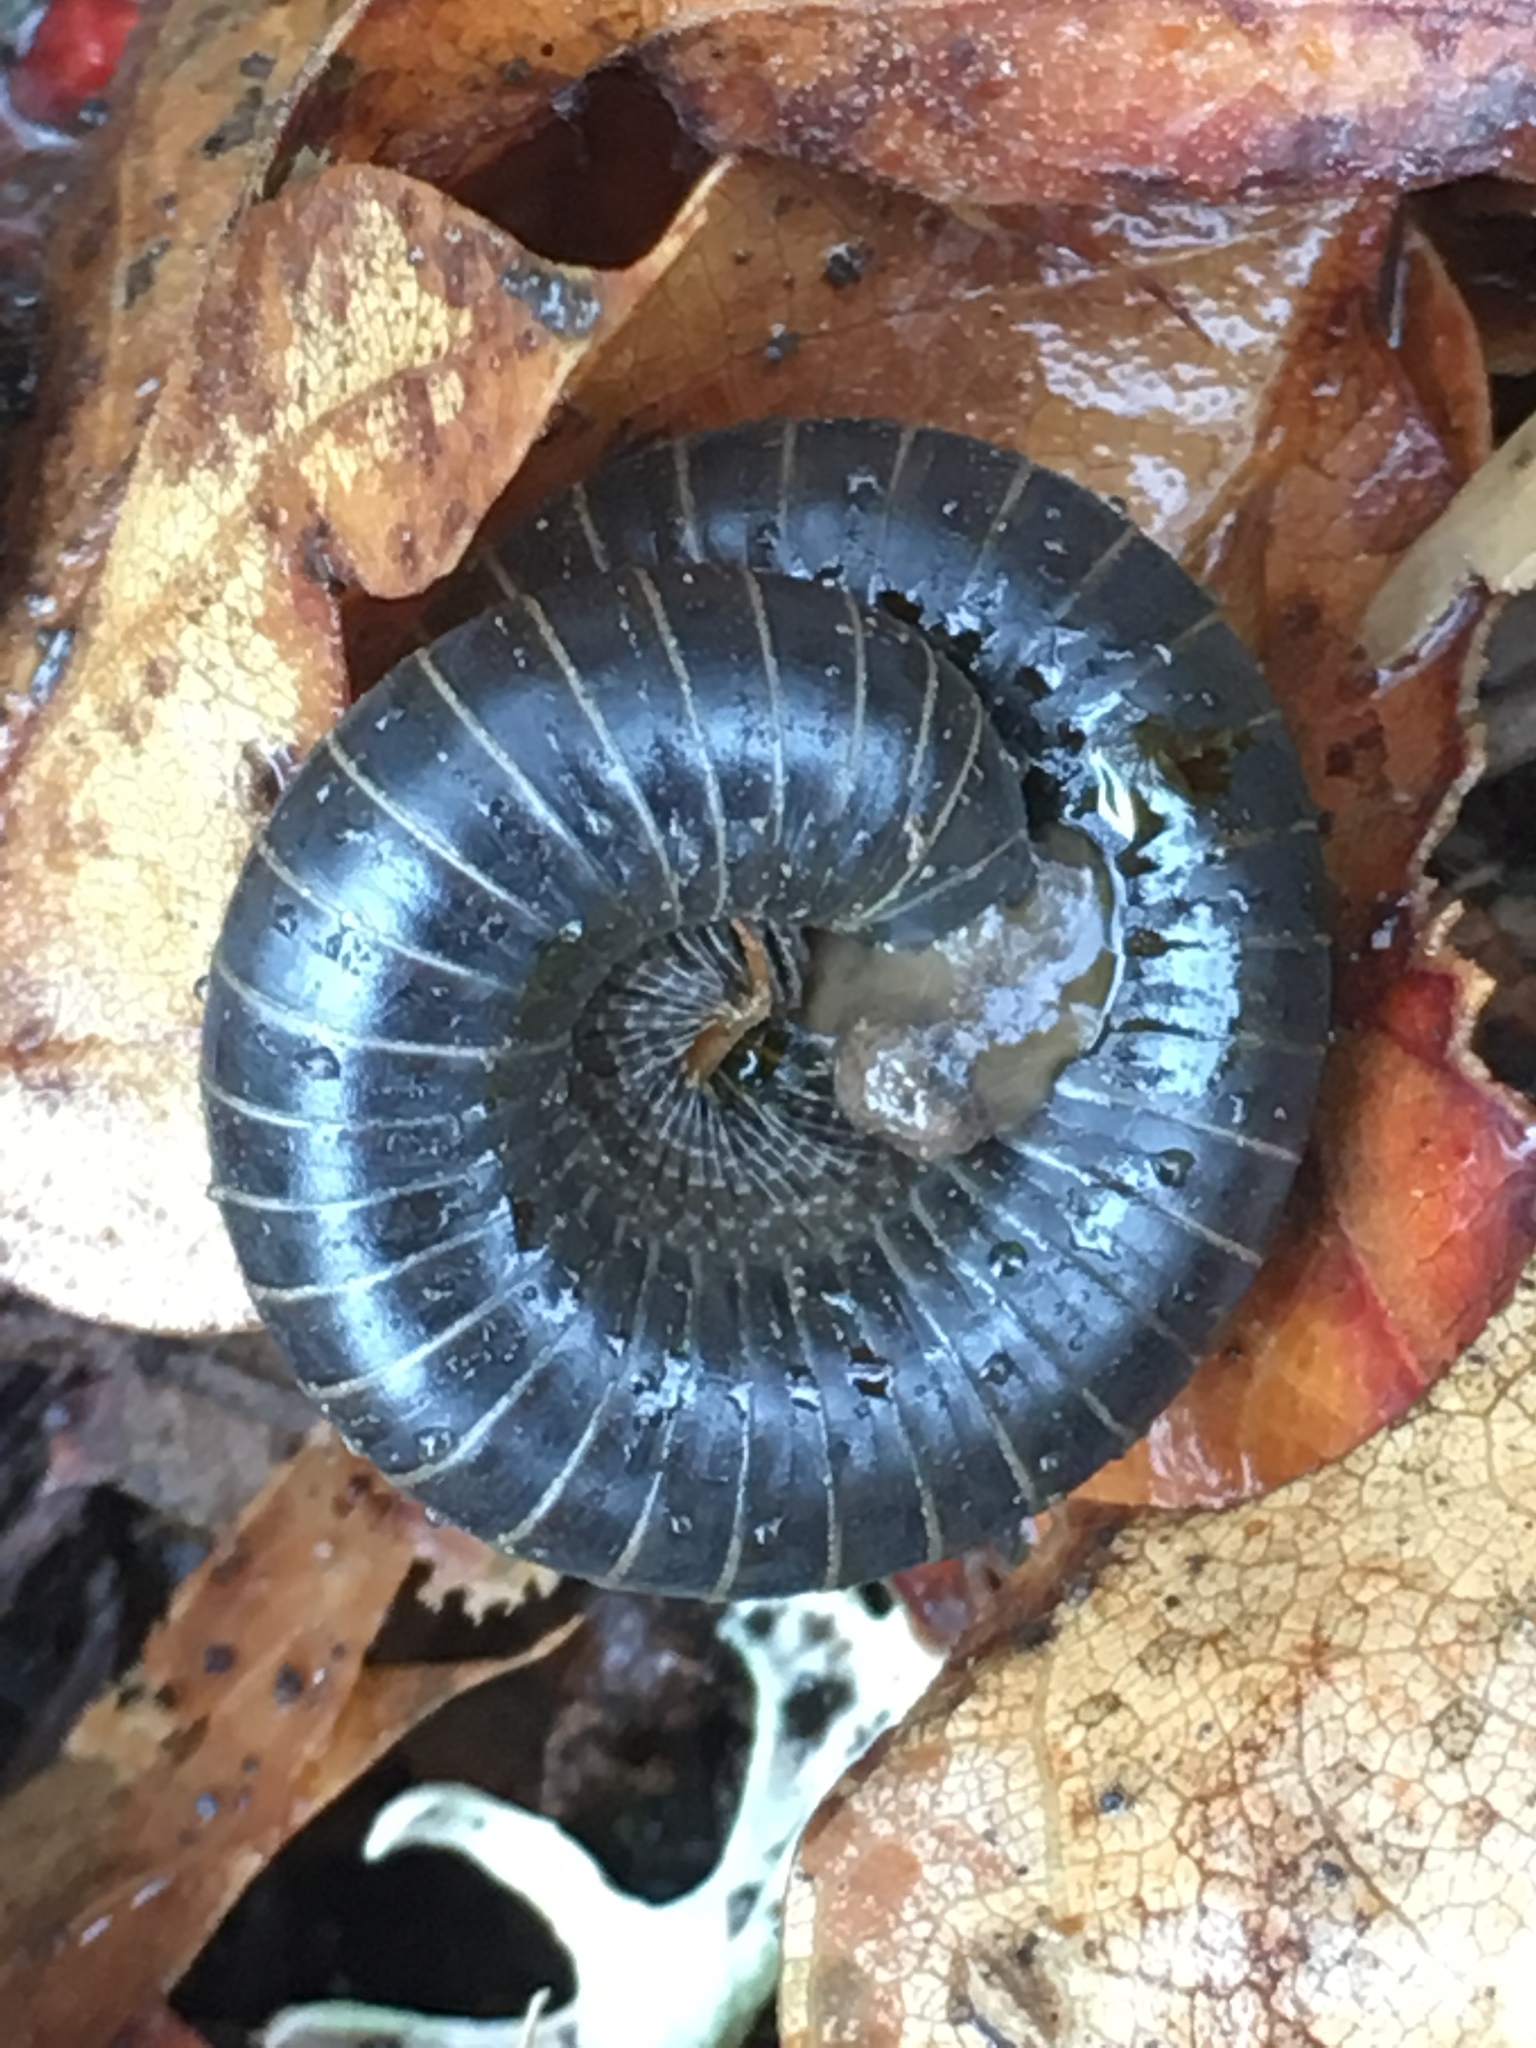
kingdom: Animalia
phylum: Arthropoda
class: Diplopoda
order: Spirobolida
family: Spirobolidae
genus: Tylobolus
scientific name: Tylobolus uncigerus
